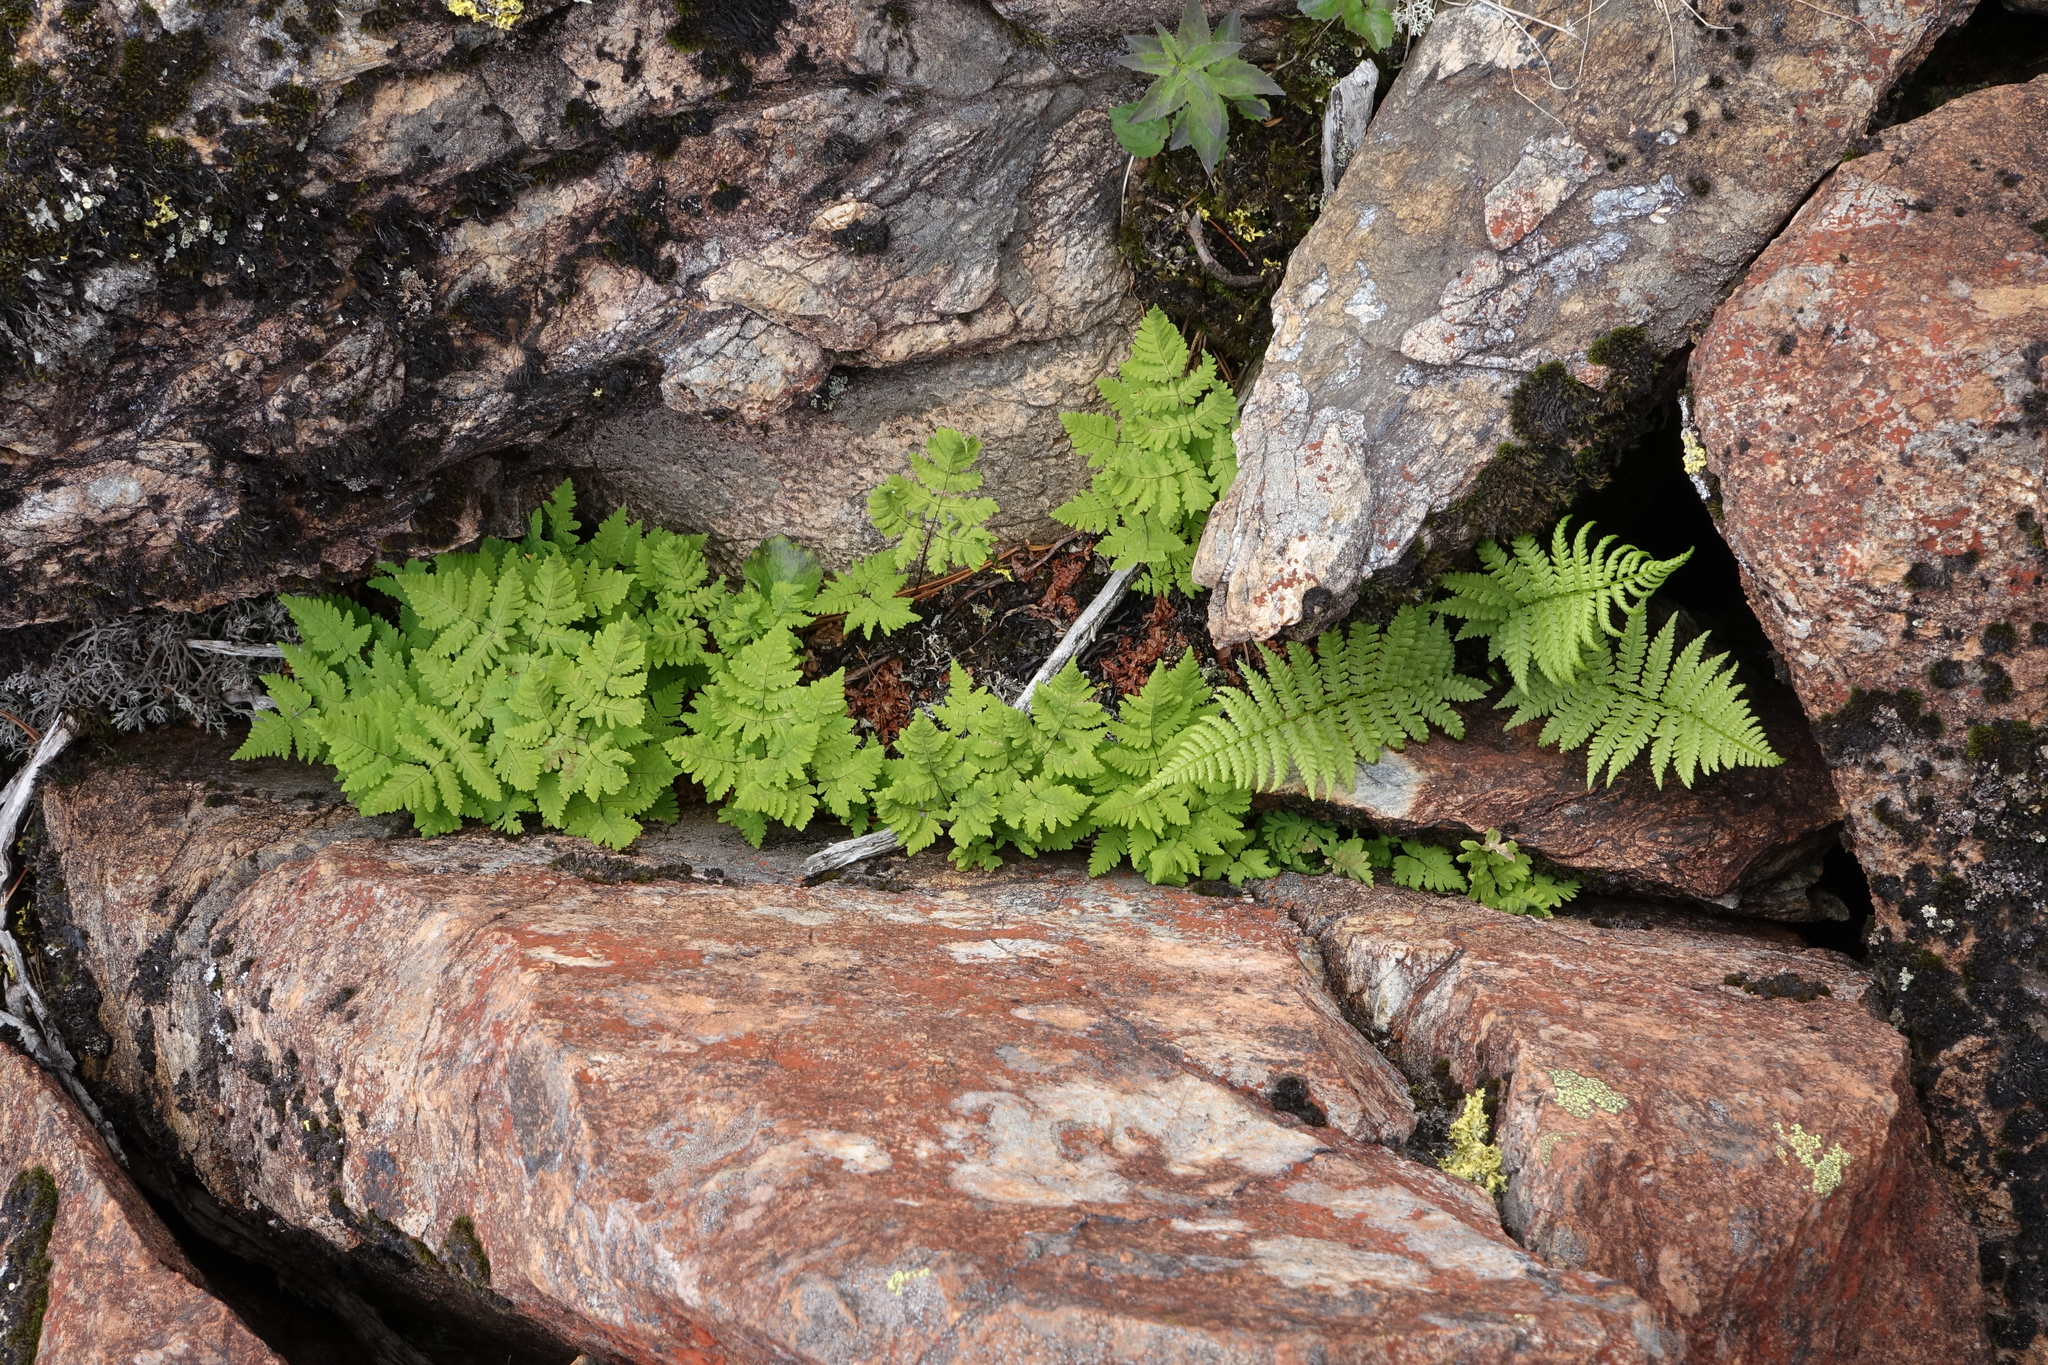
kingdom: Plantae
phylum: Tracheophyta
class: Polypodiopsida
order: Polypodiales
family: Cystopteridaceae
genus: Gymnocarpium
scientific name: Gymnocarpium jessoense
